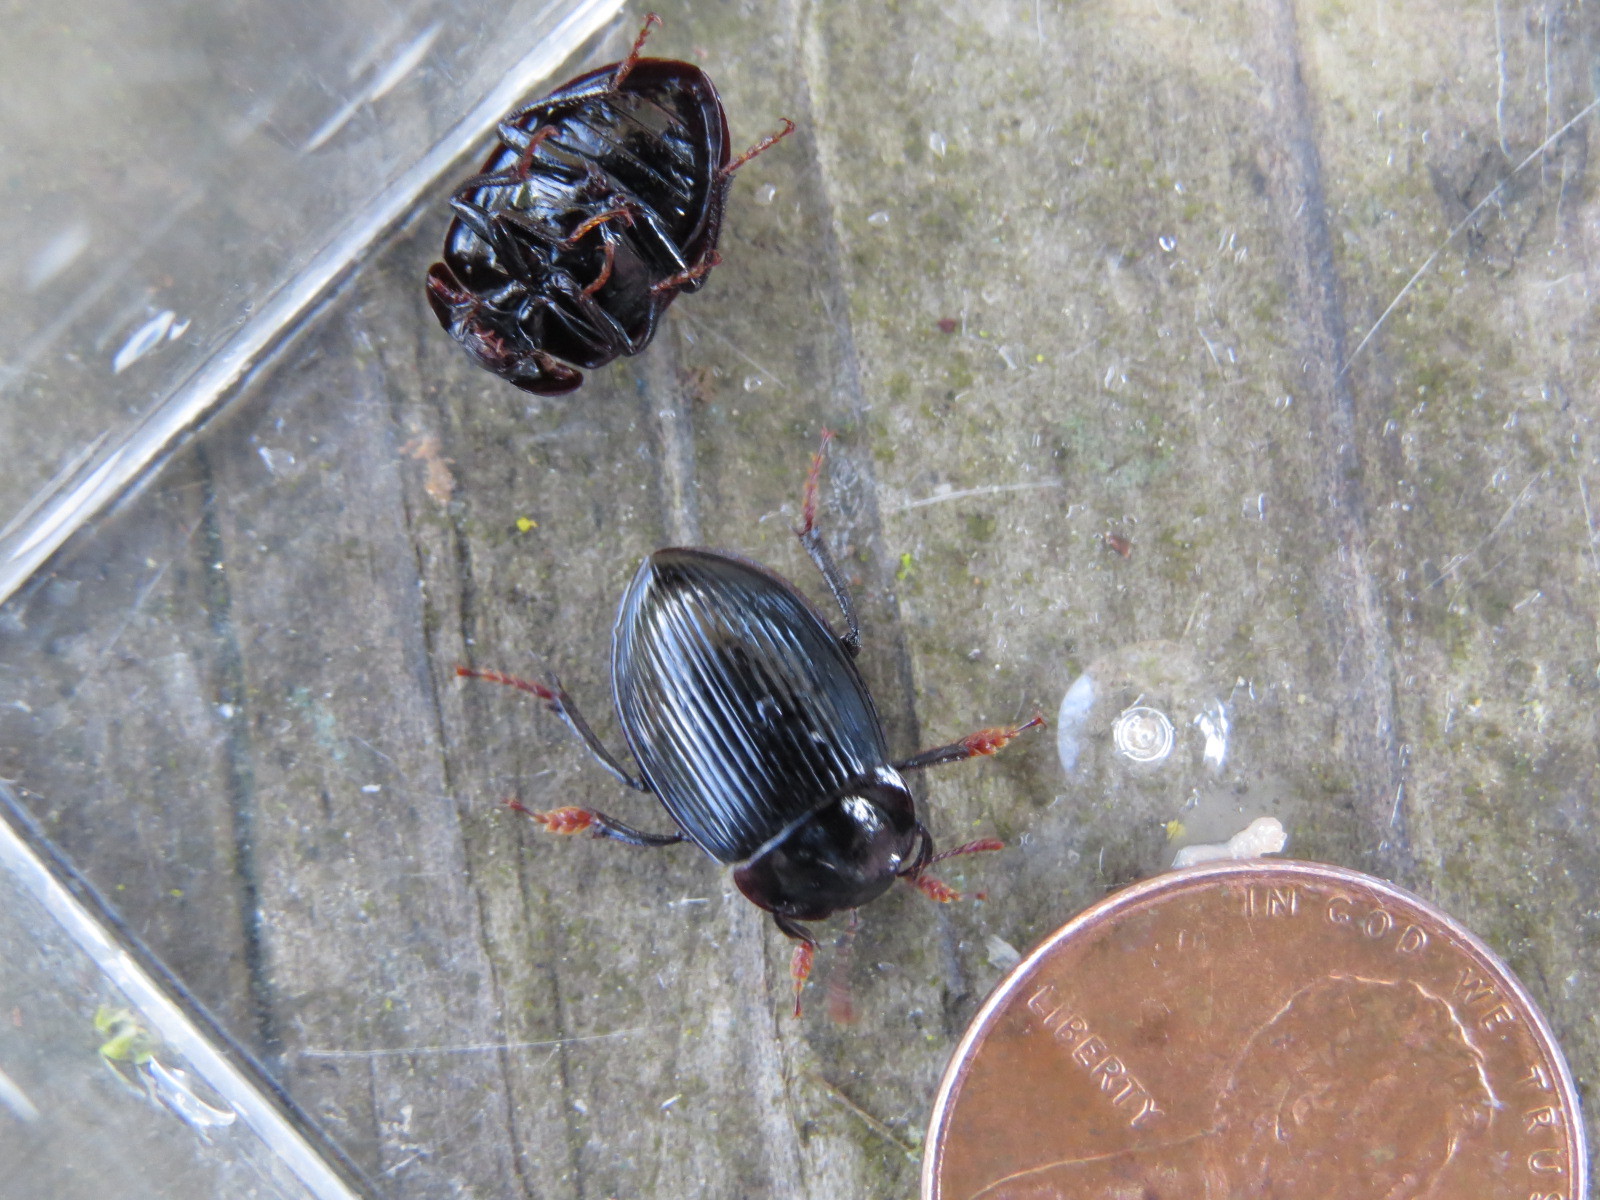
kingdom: Animalia
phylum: Arthropoda
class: Insecta
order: Coleoptera
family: Agyrtidae
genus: Necrophilus
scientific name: Necrophilus hydrophiloides
